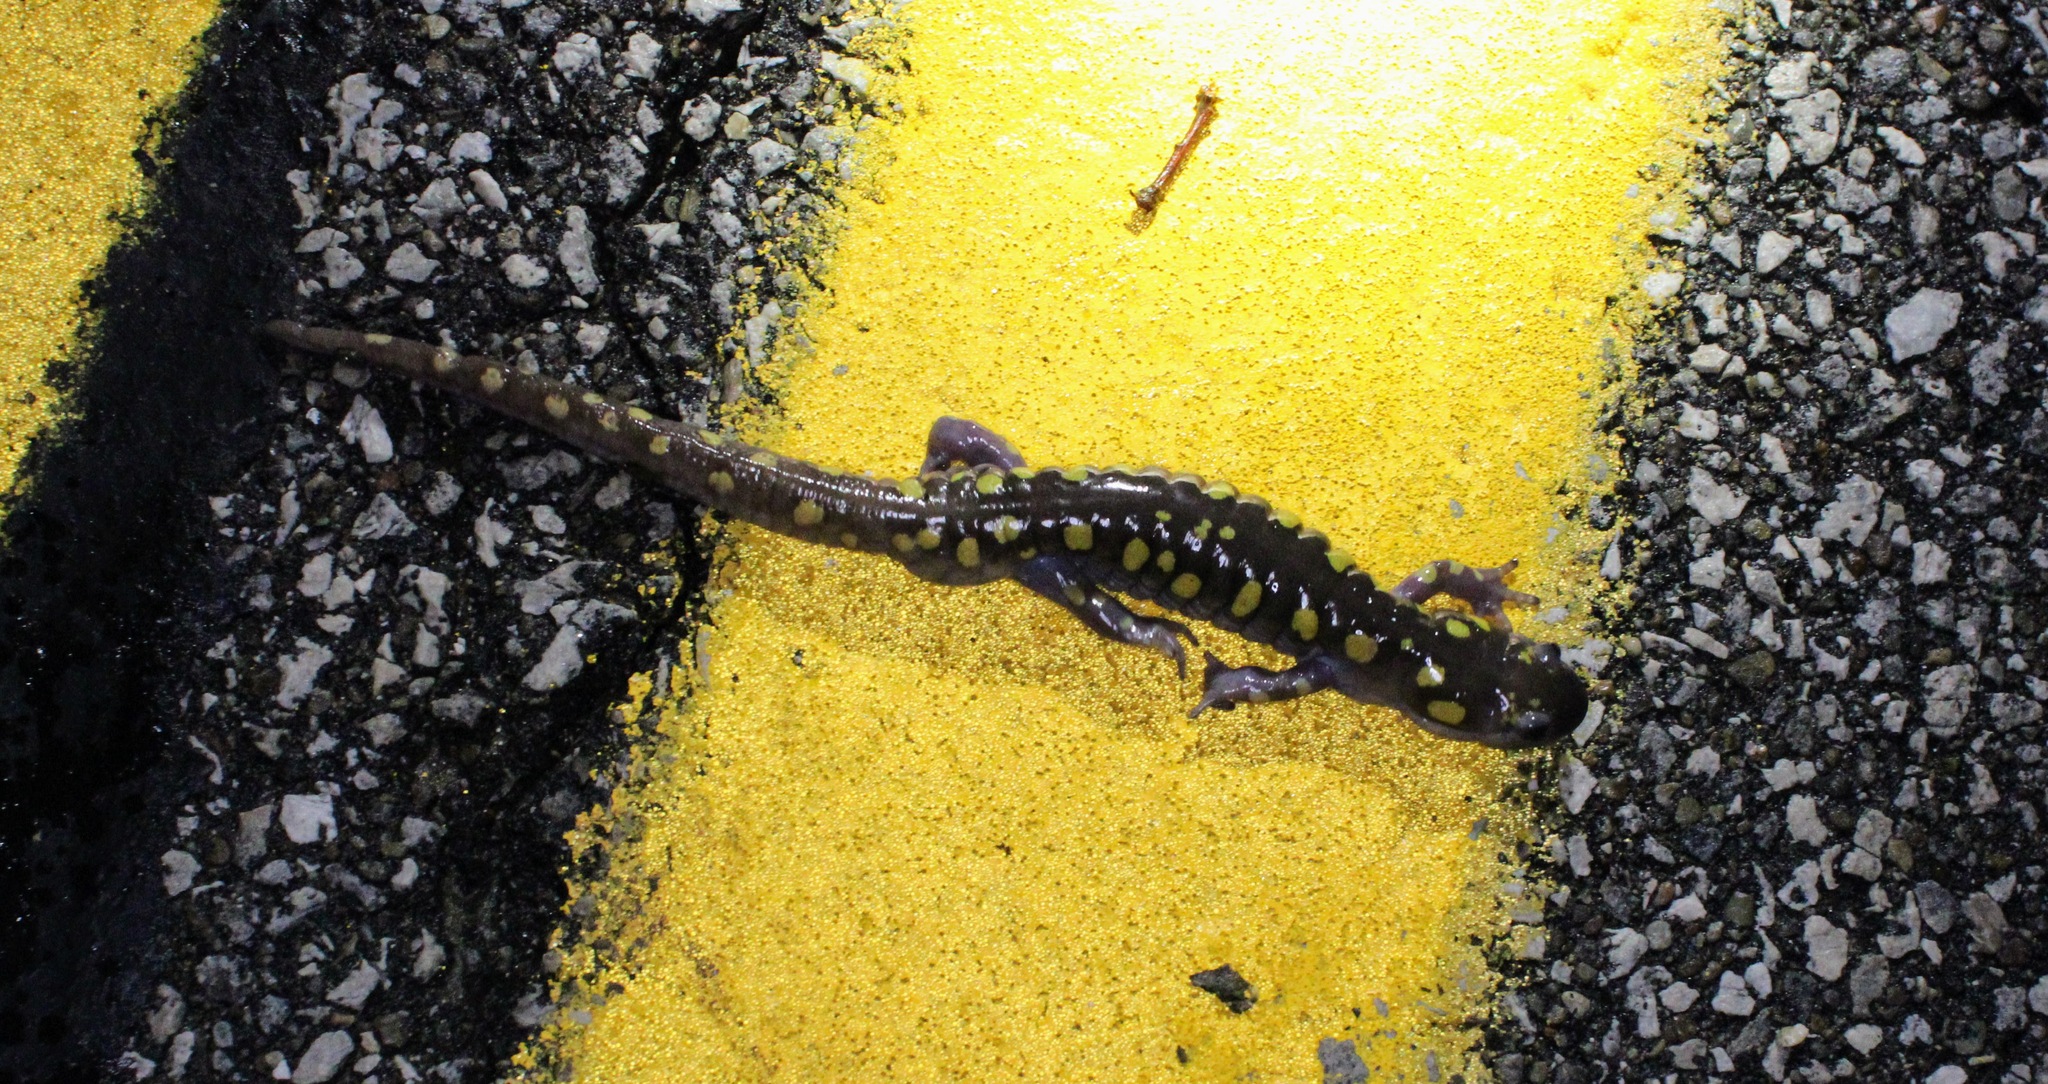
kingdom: Animalia
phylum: Chordata
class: Amphibia
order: Caudata
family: Ambystomatidae
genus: Ambystoma
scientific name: Ambystoma maculatum
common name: Spotted salamander
